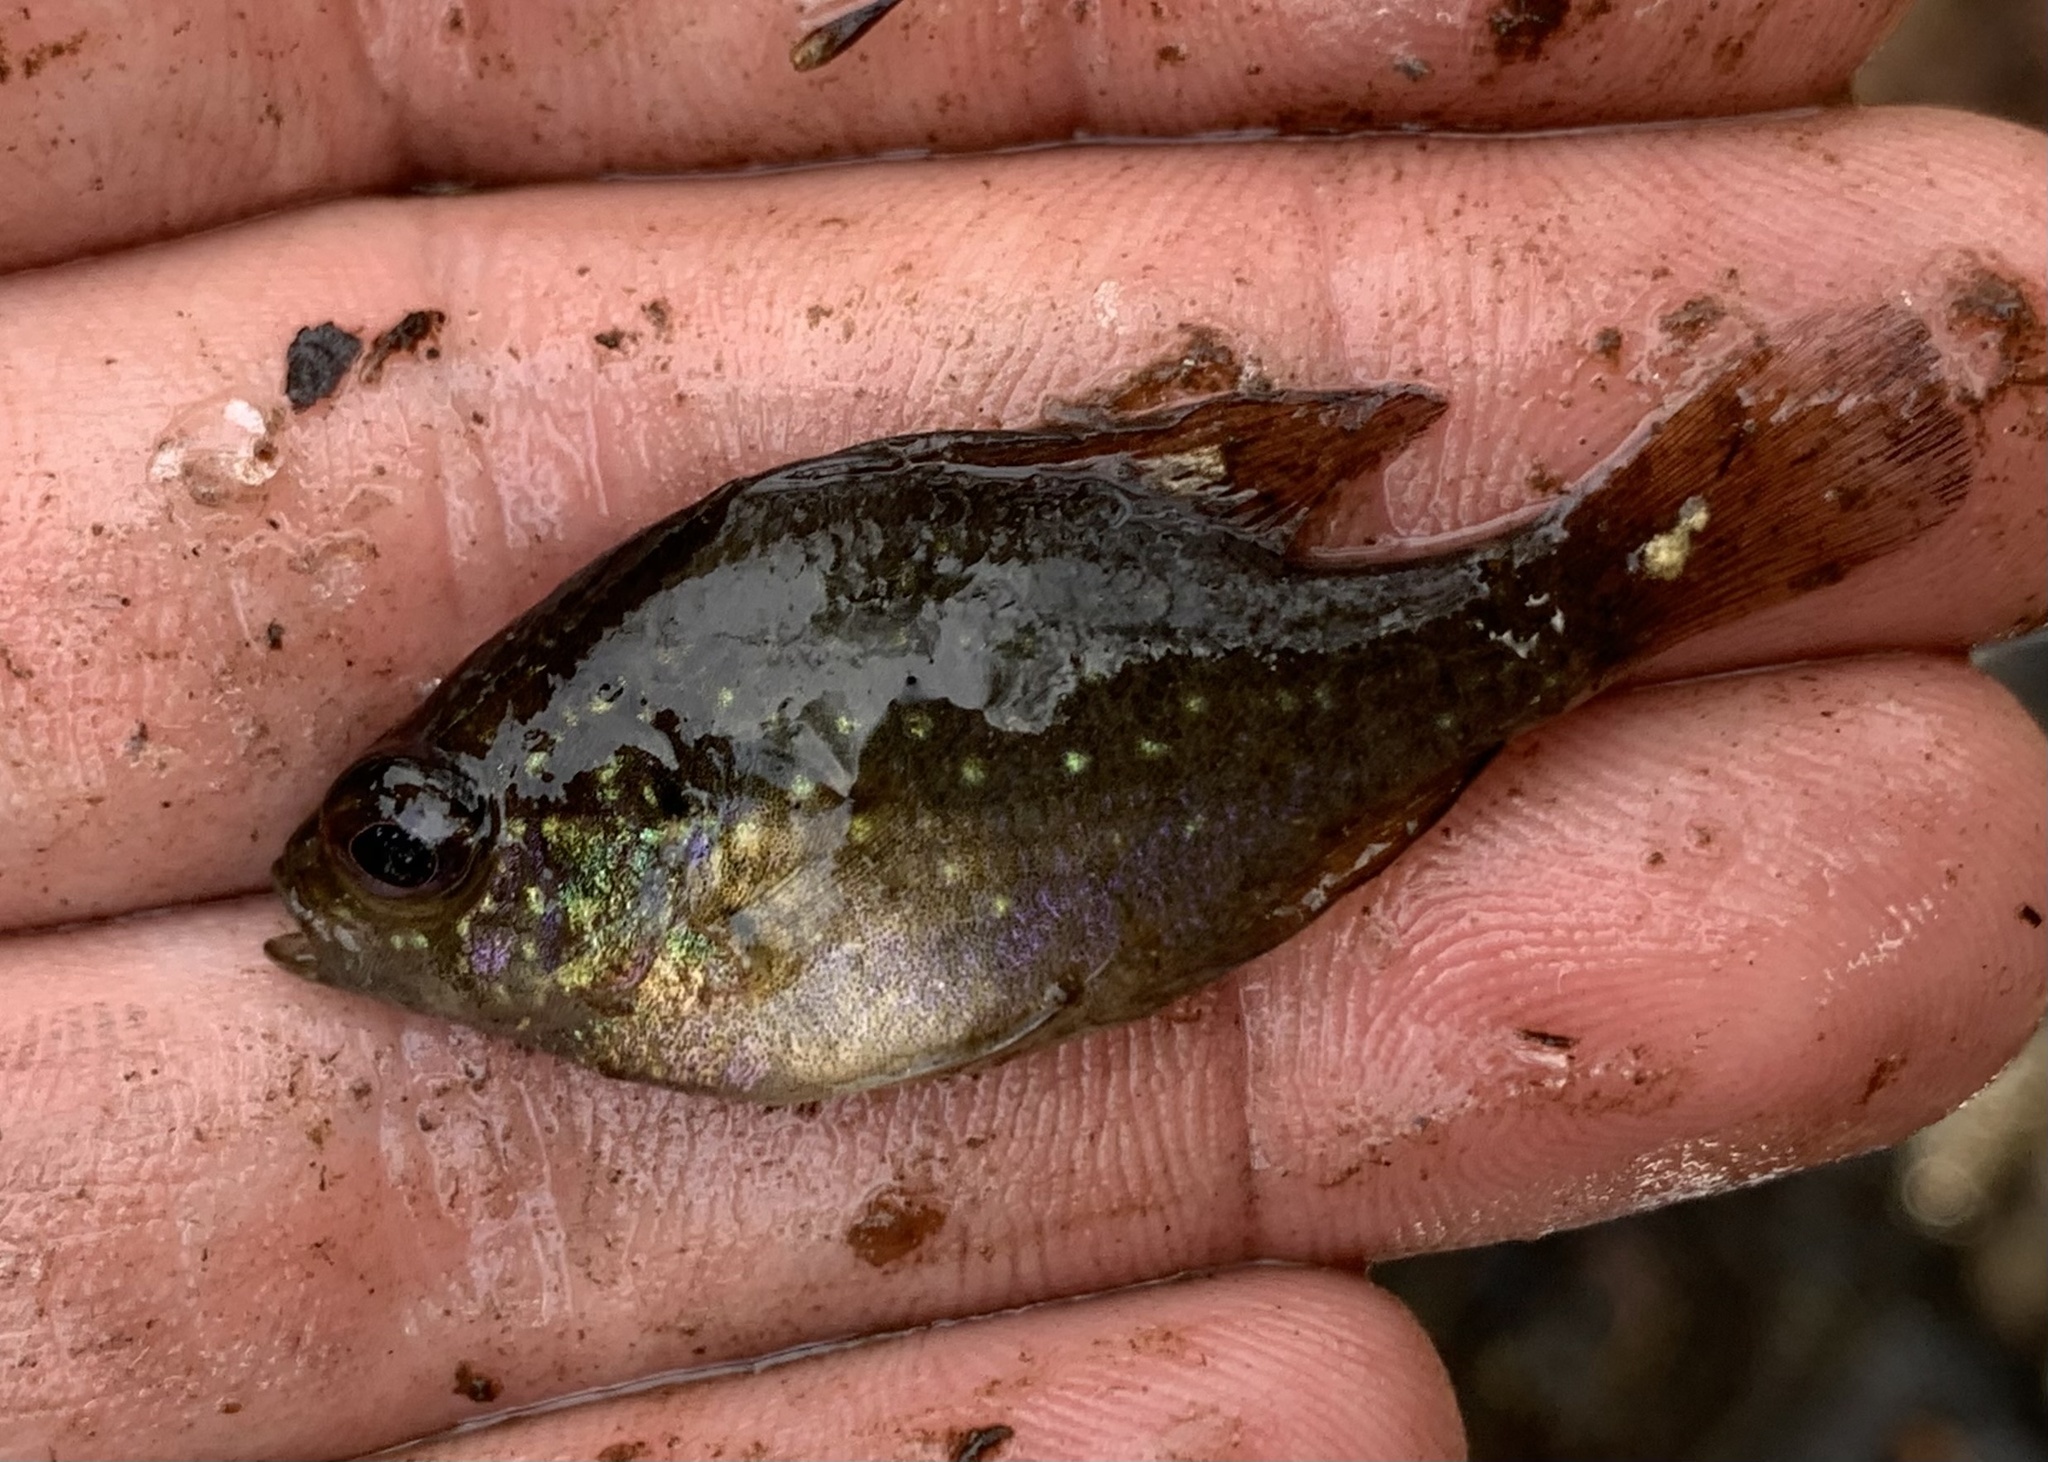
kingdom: Animalia
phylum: Chordata
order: Perciformes
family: Centrarchidae
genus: Enneacanthus
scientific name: Enneacanthus gloriosus
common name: Bluespotted sunfish
